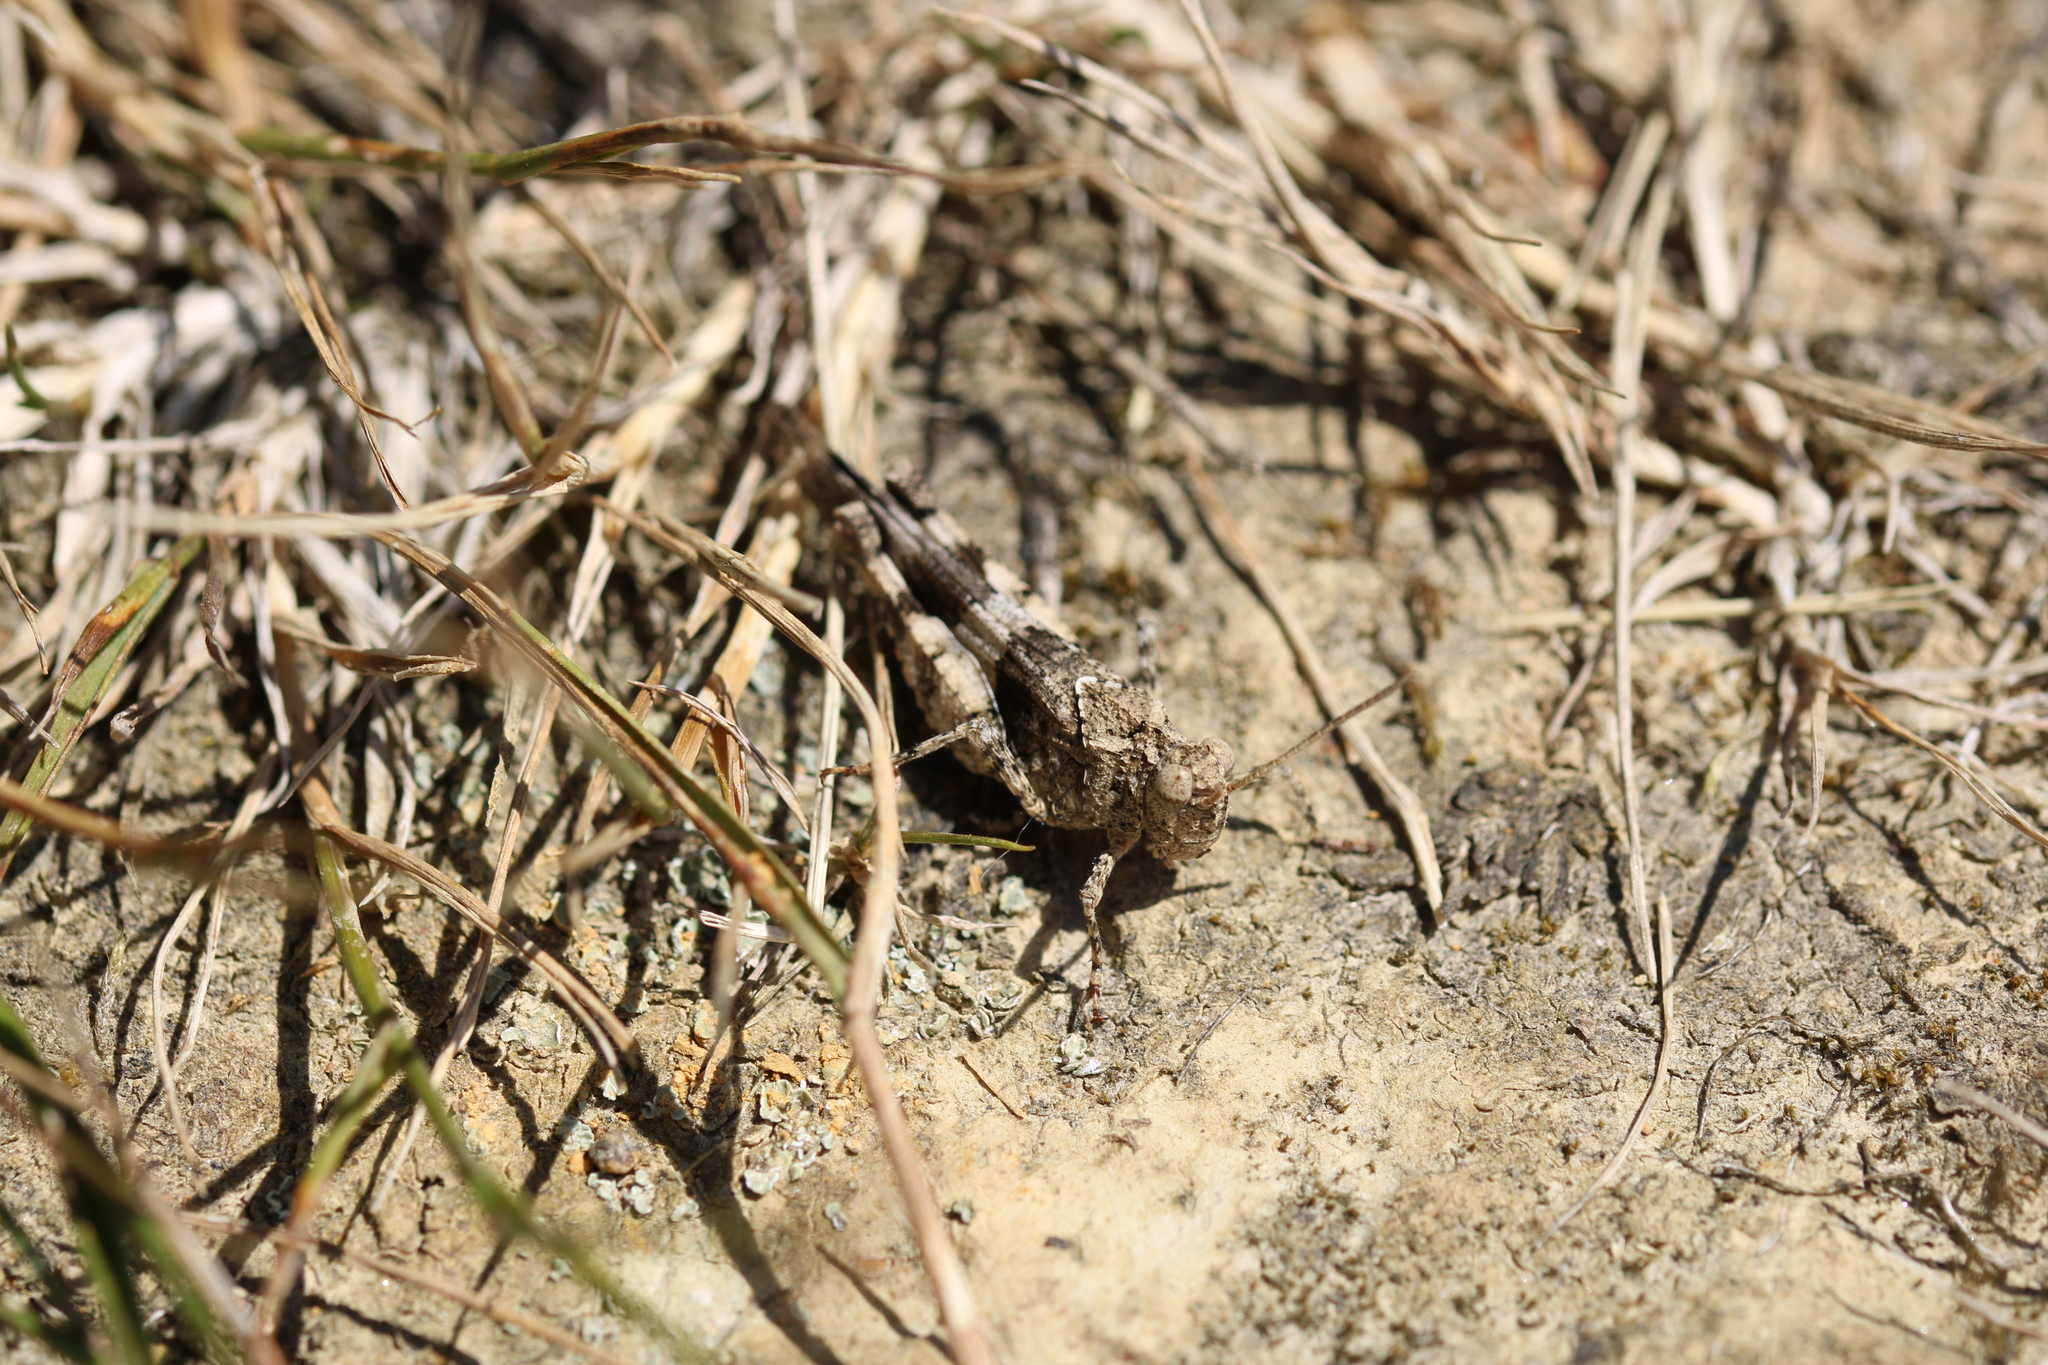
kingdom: Animalia
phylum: Arthropoda
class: Insecta
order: Orthoptera
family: Acrididae
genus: Oedipoda
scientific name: Oedipoda caerulescens
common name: Blue-winged grasshopper
